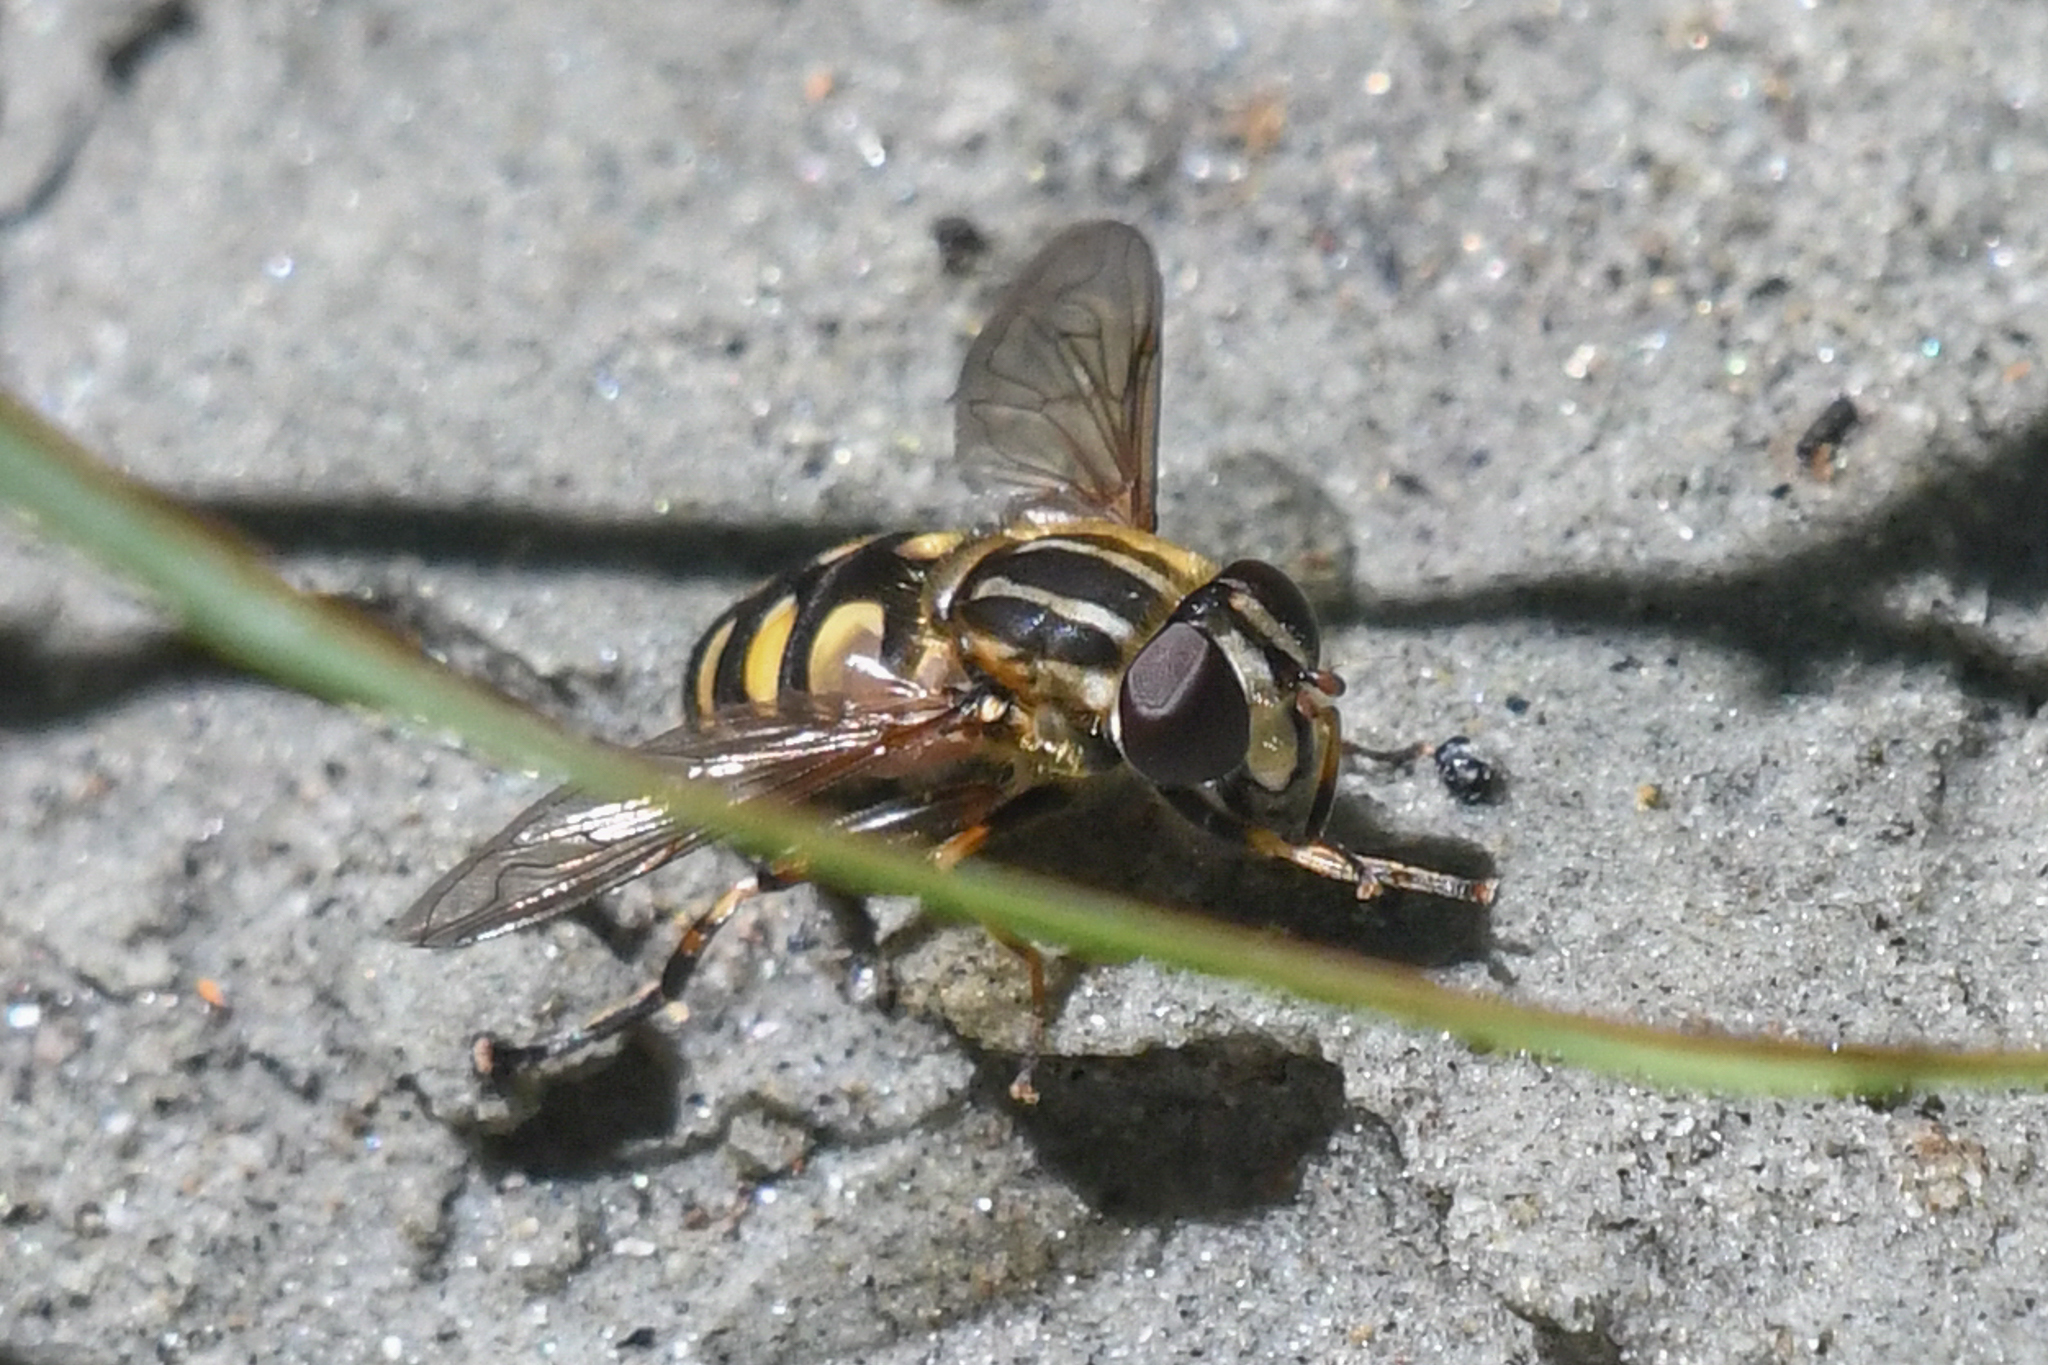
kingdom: Animalia
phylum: Arthropoda
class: Insecta
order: Diptera
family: Syrphidae
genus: Helophilus
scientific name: Helophilus obscurus
